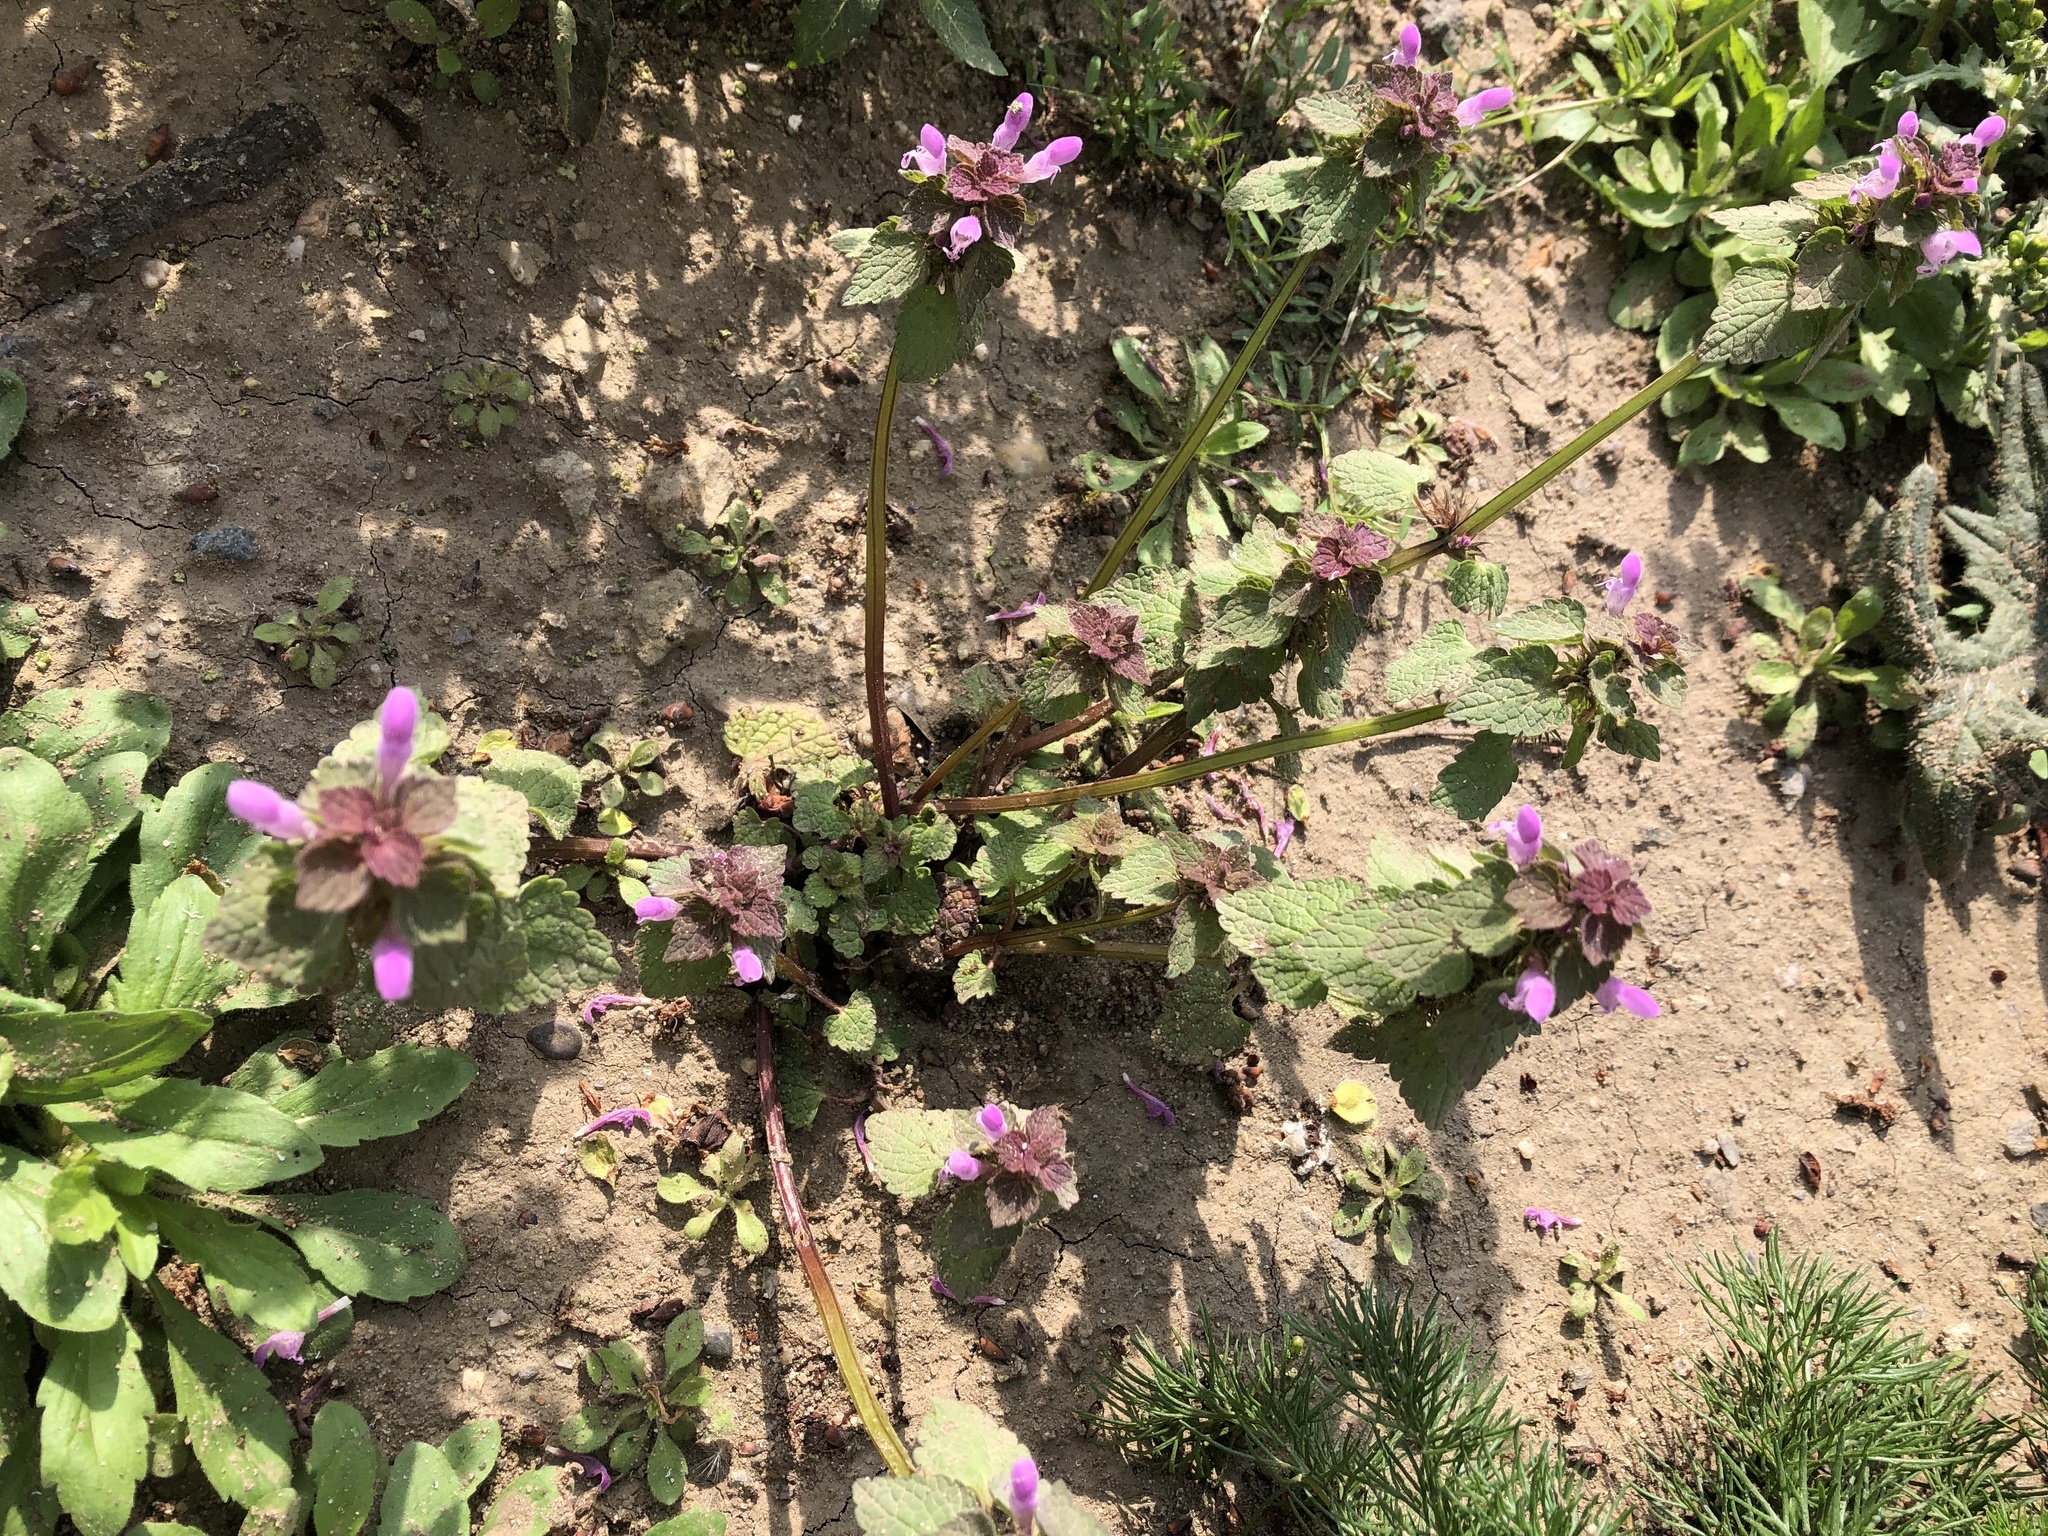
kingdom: Plantae
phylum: Tracheophyta
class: Magnoliopsida
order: Lamiales
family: Lamiaceae
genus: Lamium
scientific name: Lamium purpureum
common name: Red dead-nettle
